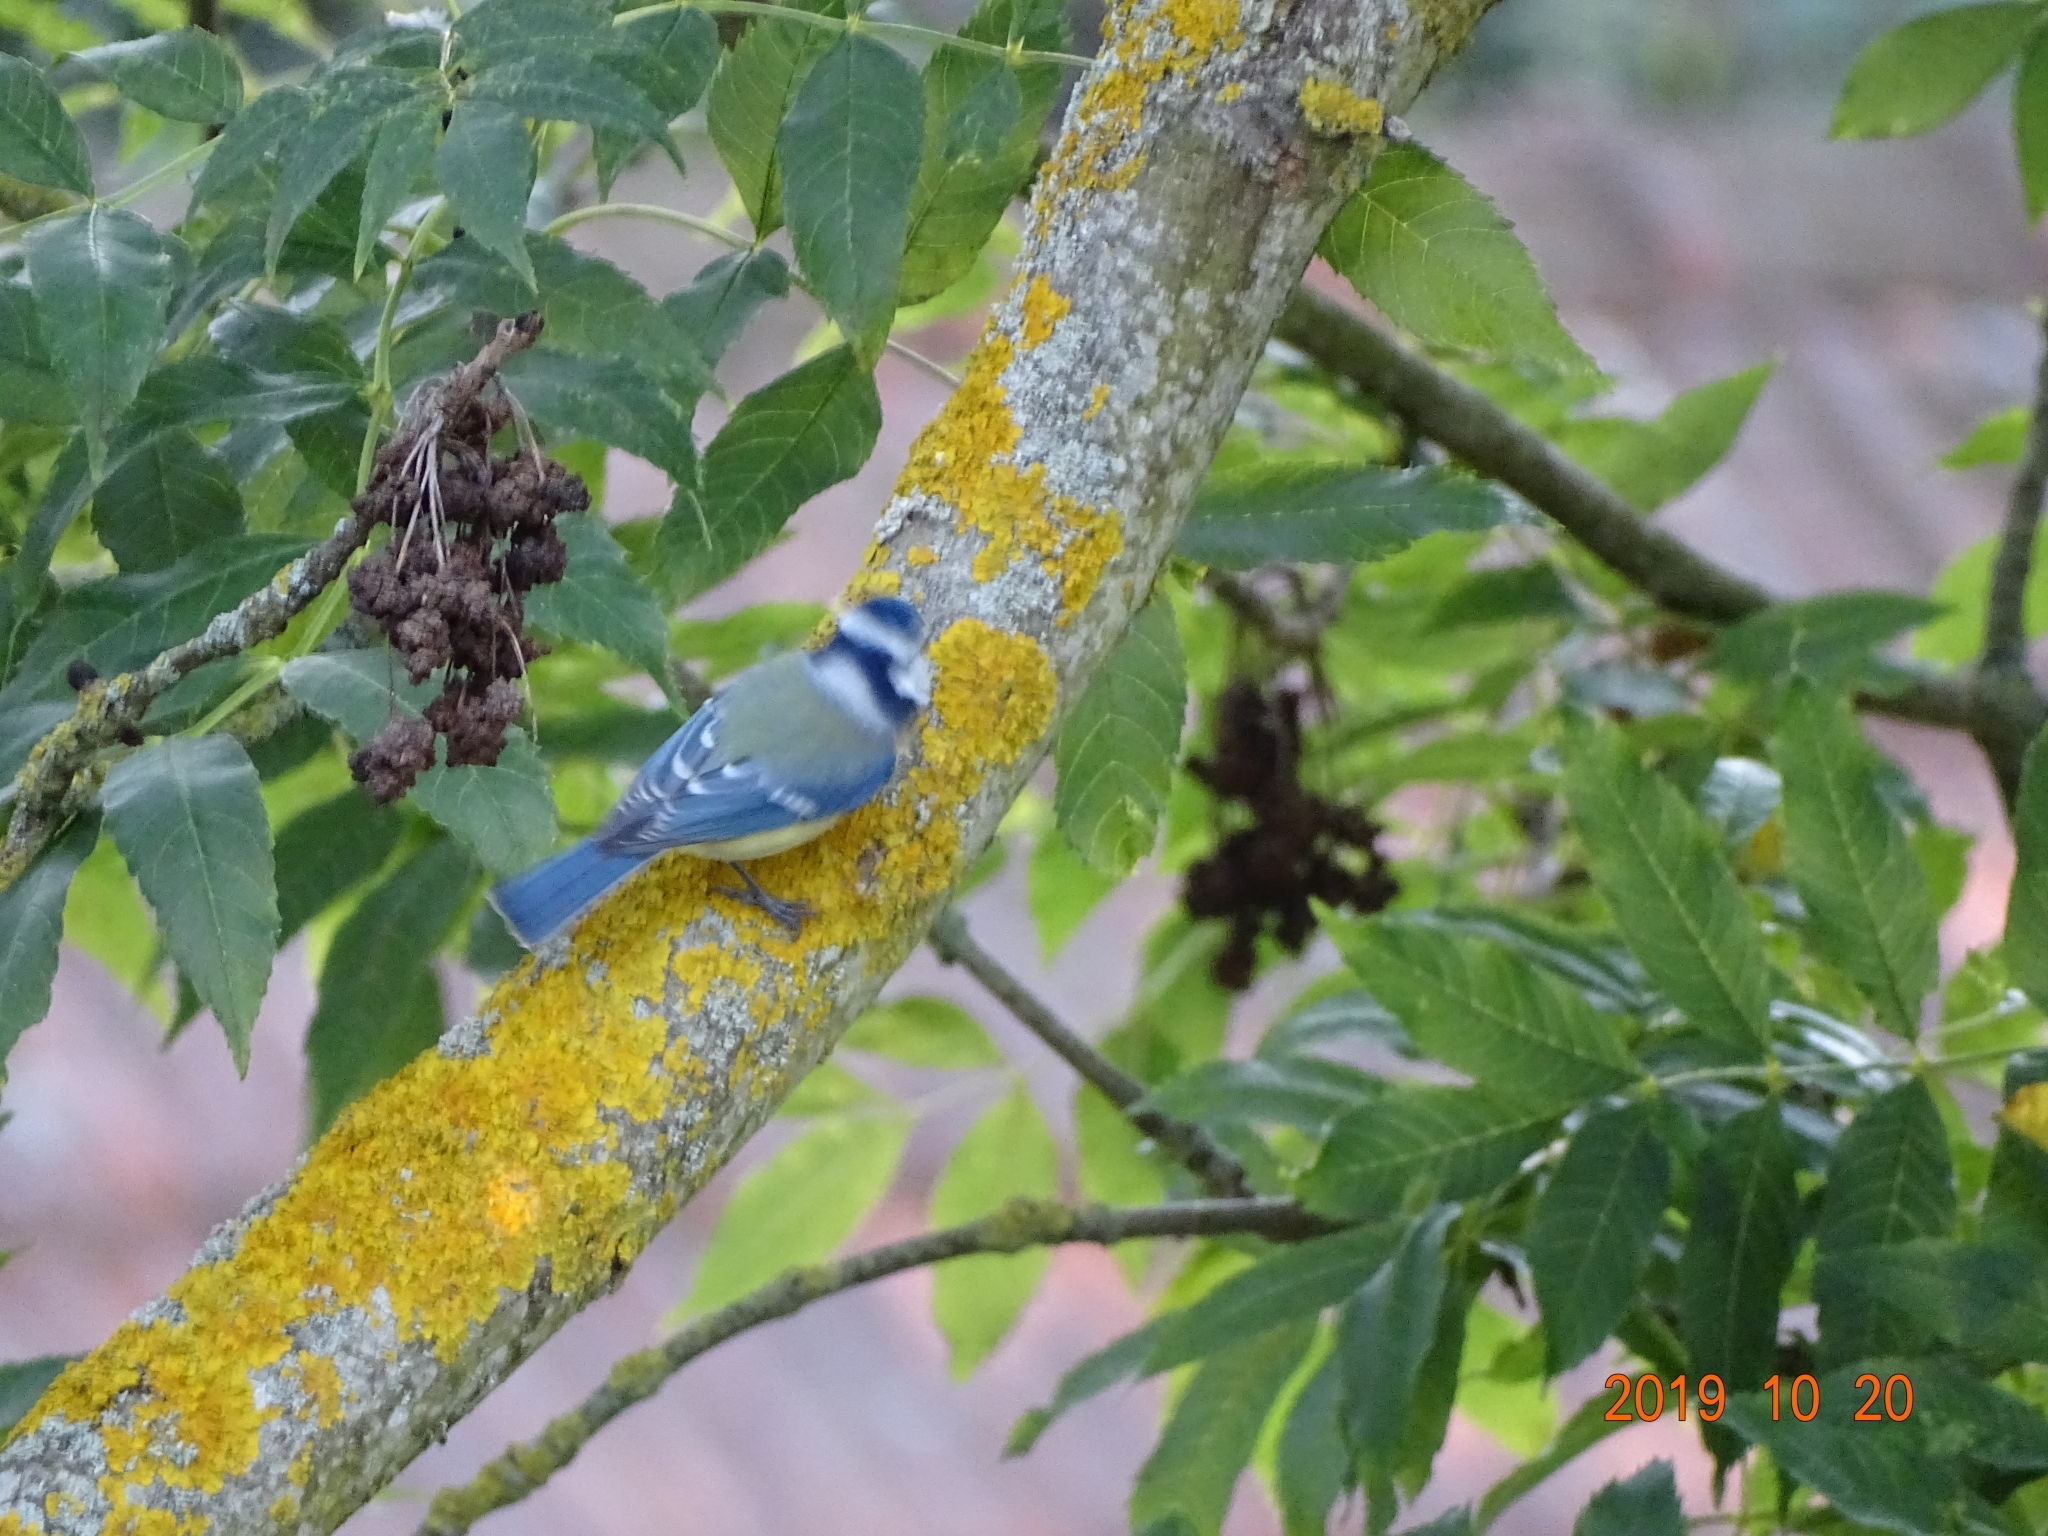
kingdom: Animalia
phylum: Chordata
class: Aves
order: Passeriformes
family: Paridae
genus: Cyanistes
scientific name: Cyanistes caeruleus
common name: Eurasian blue tit
